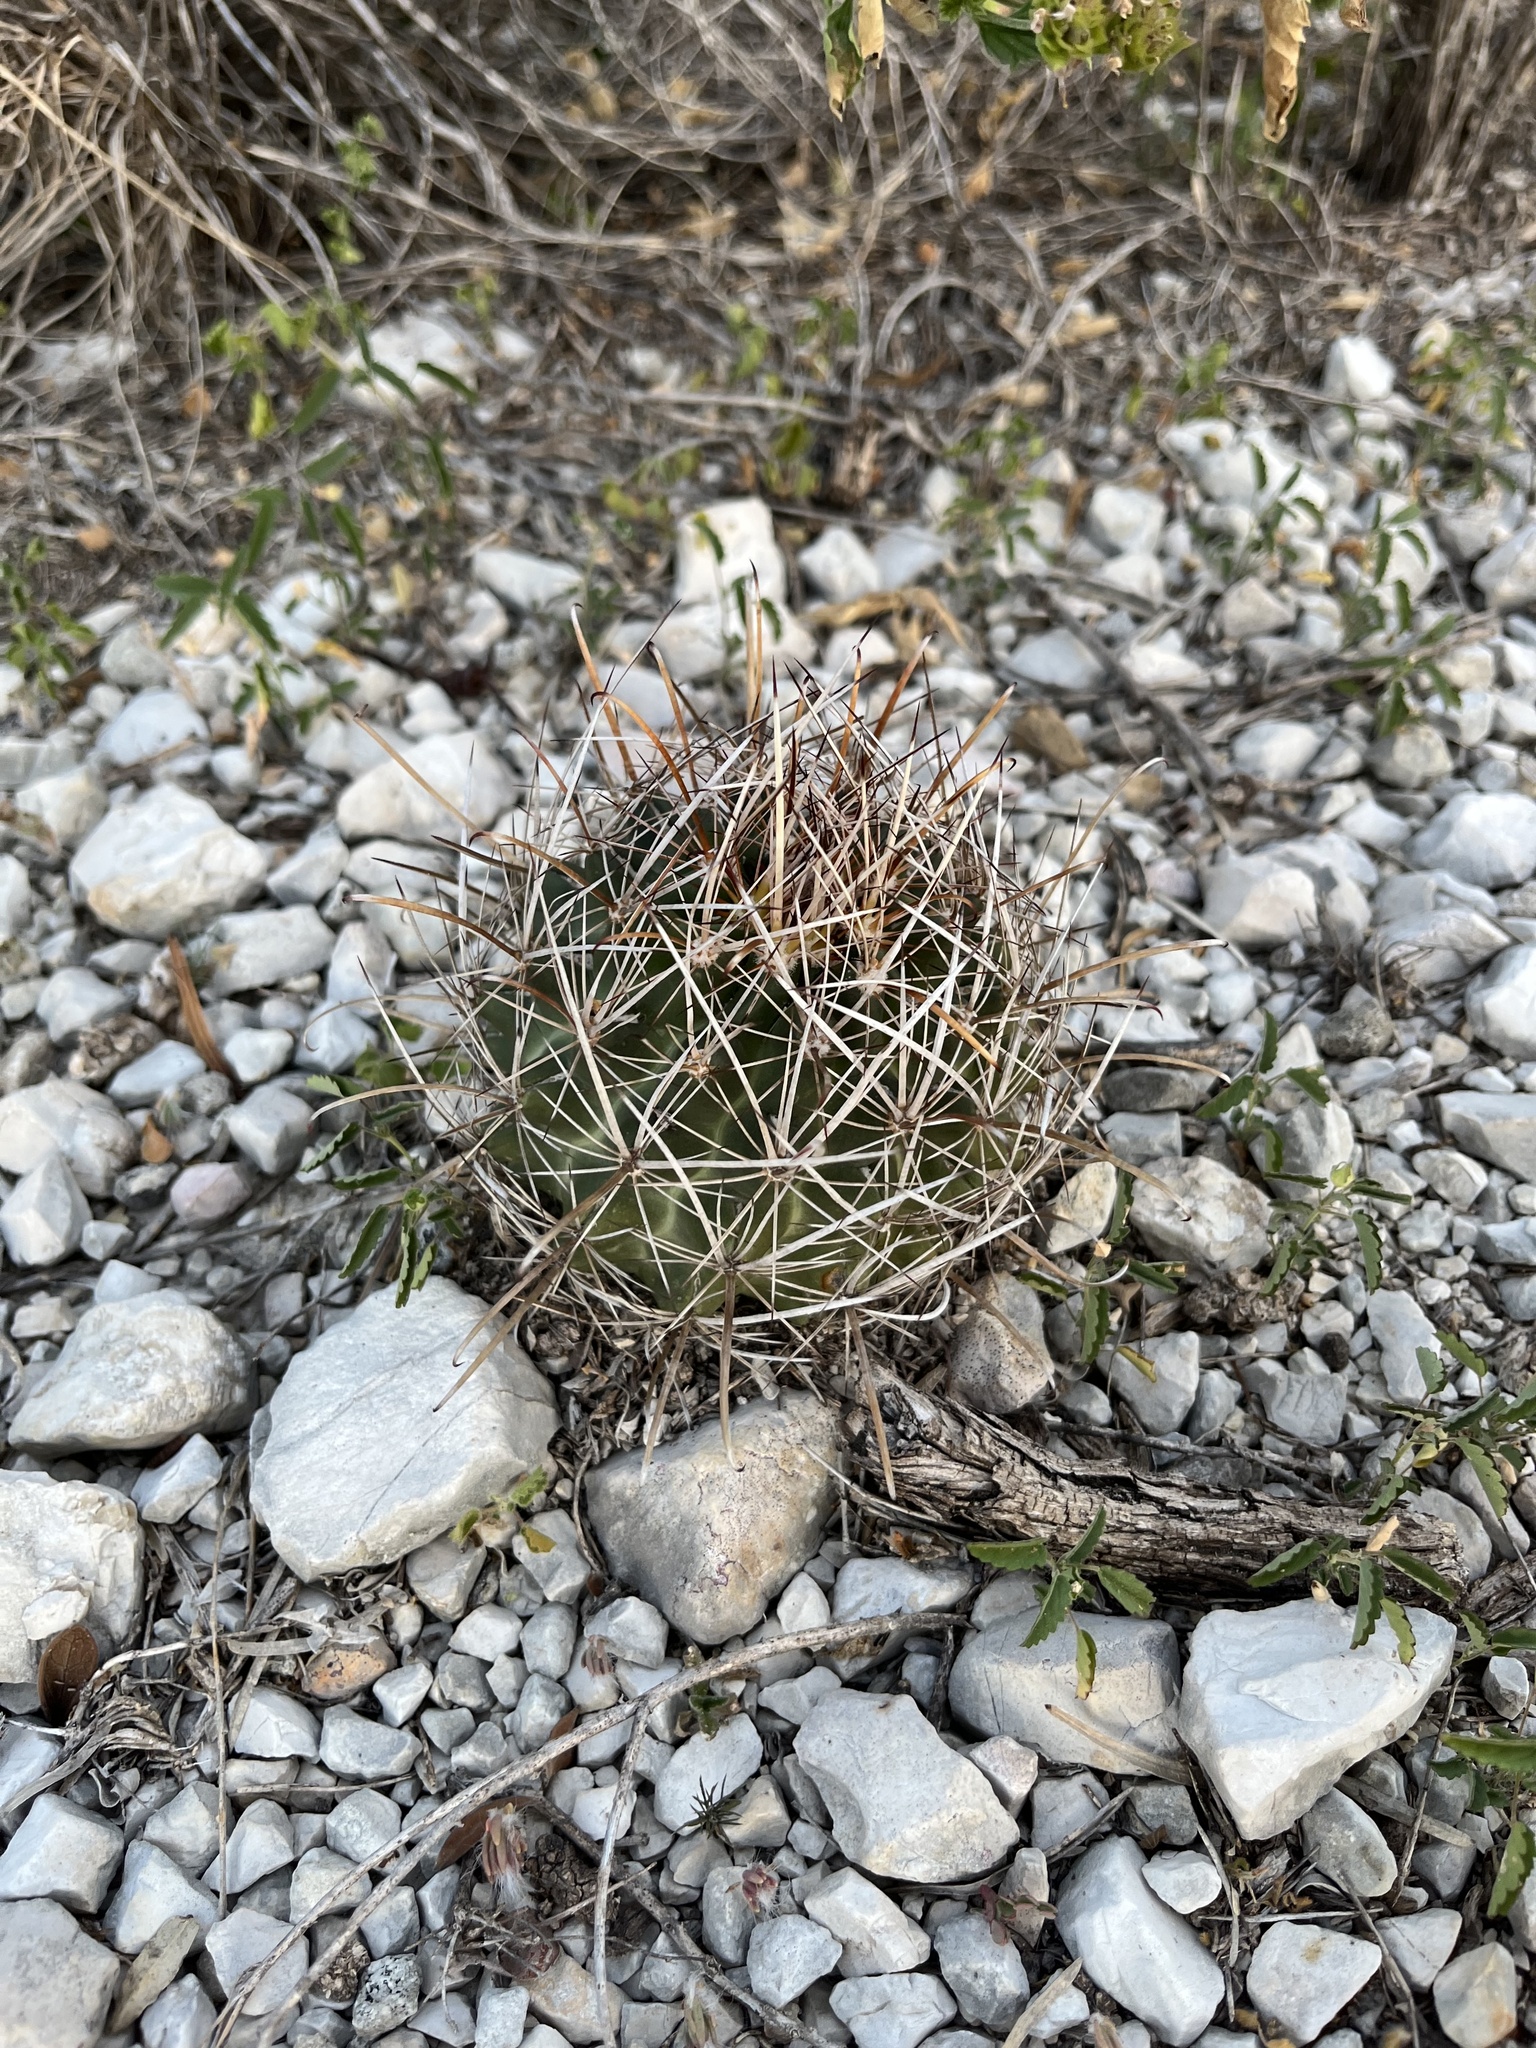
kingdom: Plantae
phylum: Tracheophyta
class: Magnoliopsida
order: Caryophyllales
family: Cactaceae
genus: Sclerocactus
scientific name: Sclerocactus brevihamatus
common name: Engelmann's fishhook cactus
